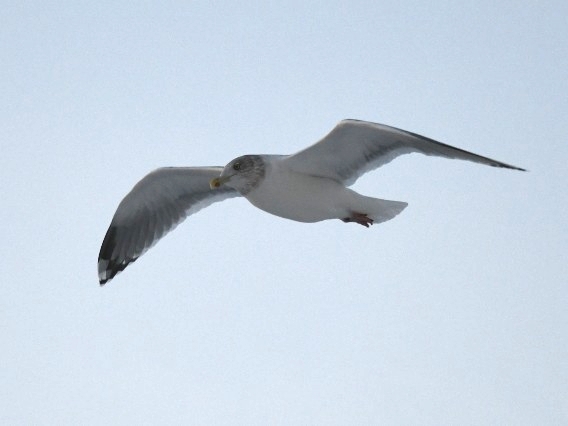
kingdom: Animalia
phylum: Chordata
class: Aves
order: Charadriiformes
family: Laridae
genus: Larus
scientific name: Larus argentatus
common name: Herring gull
